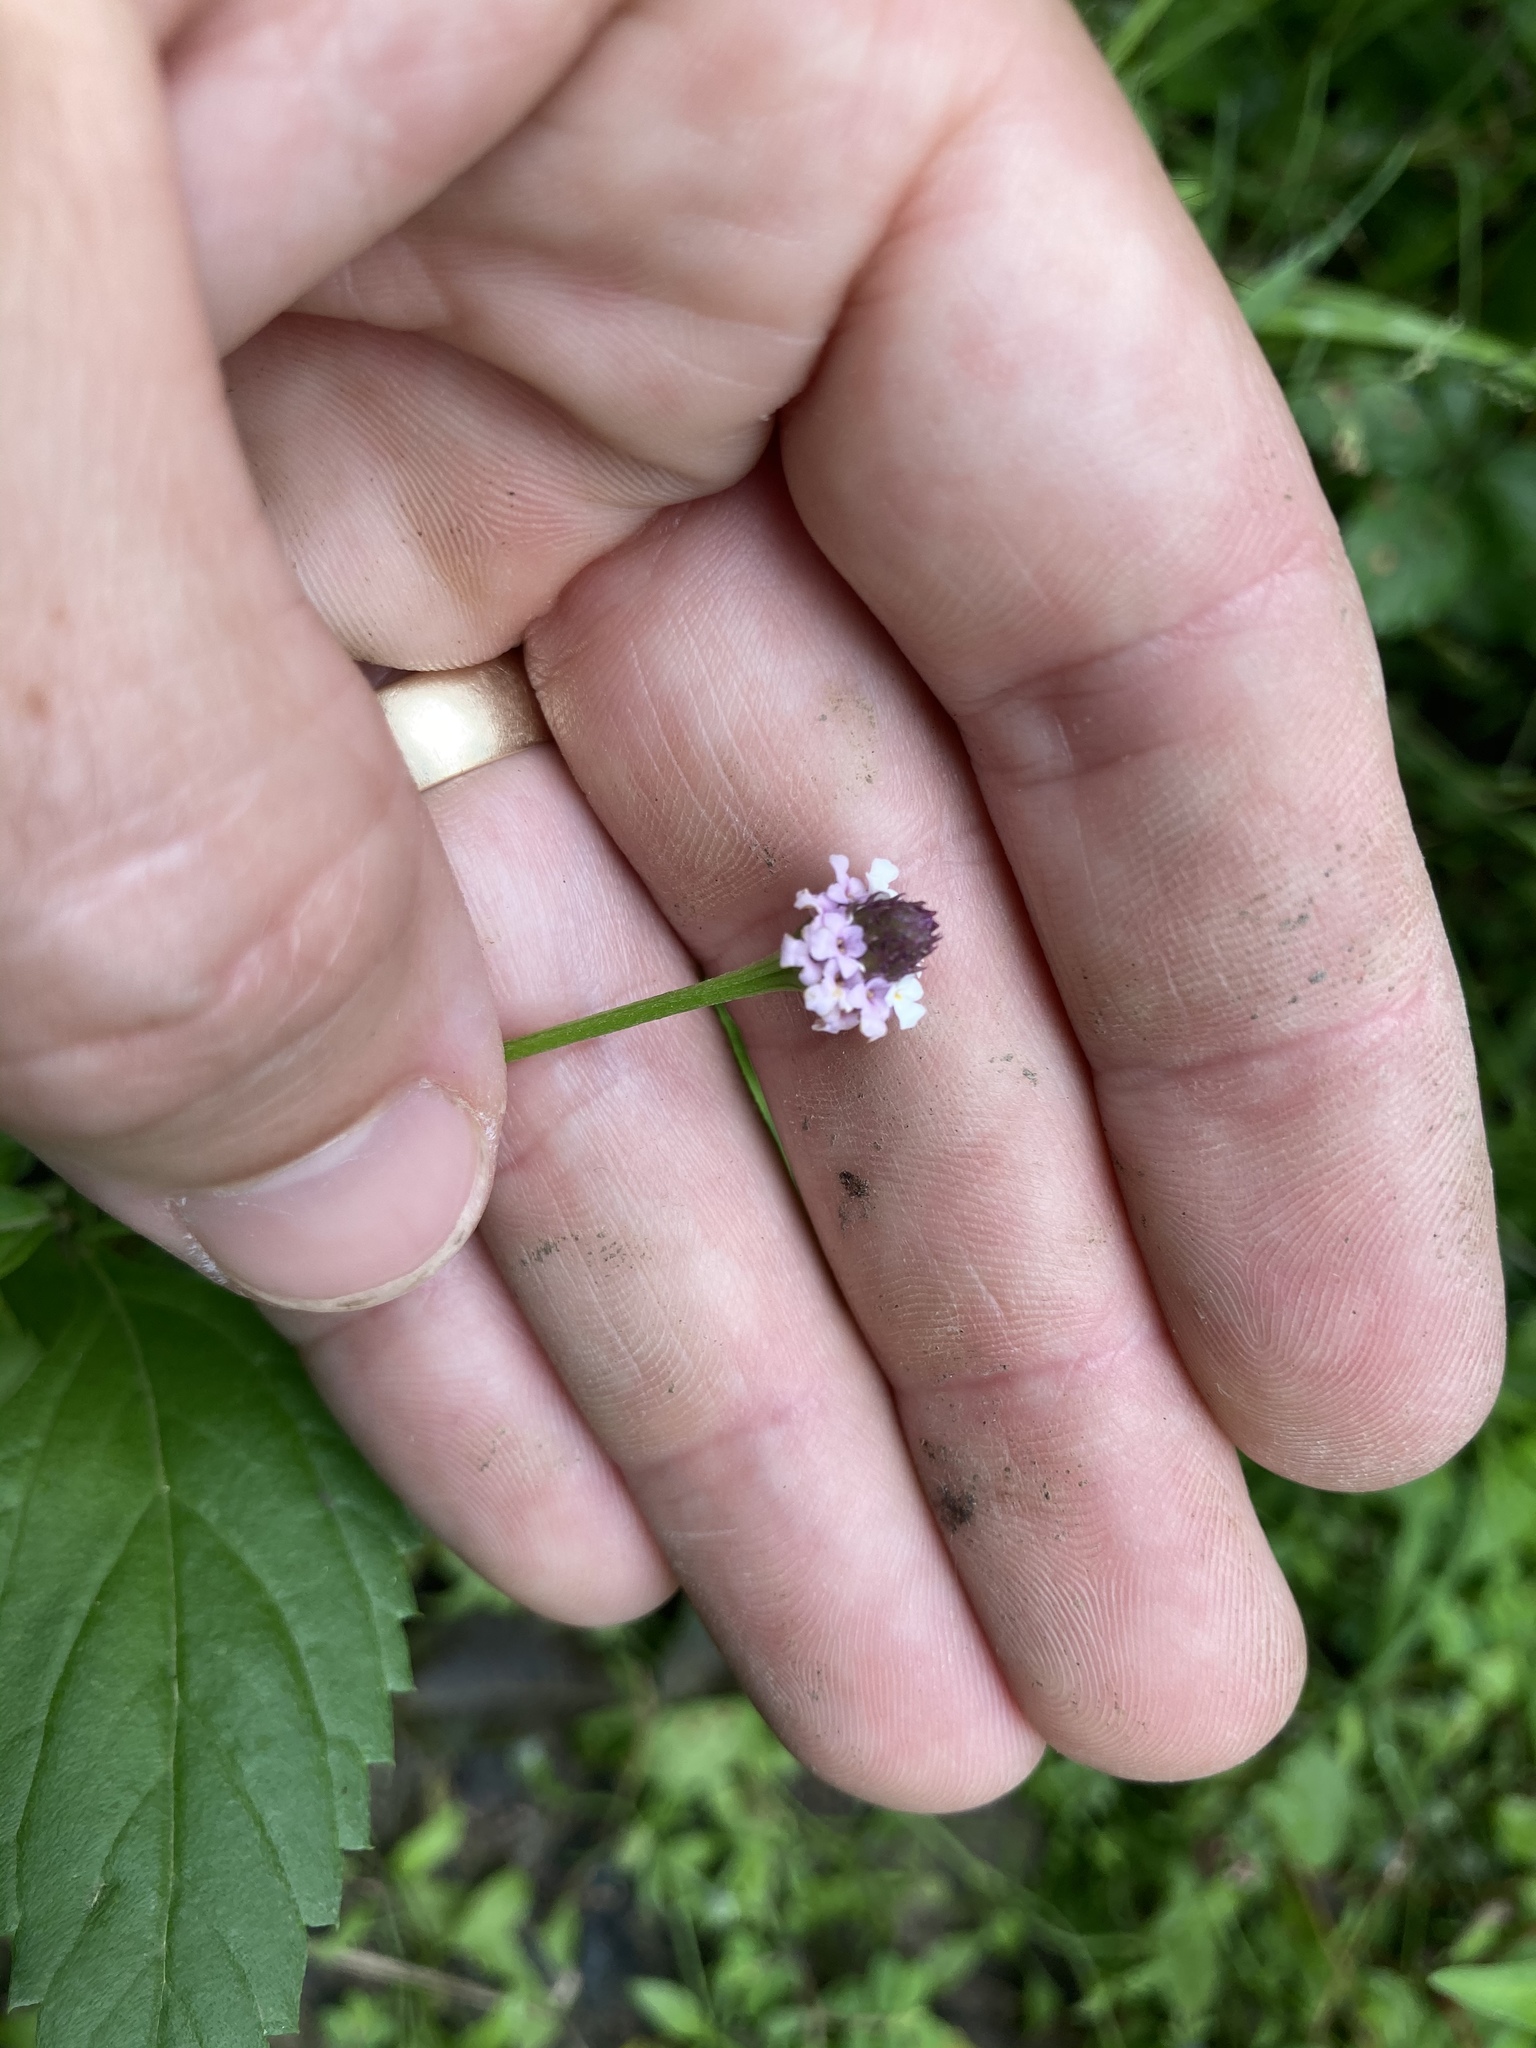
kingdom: Plantae
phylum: Tracheophyta
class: Magnoliopsida
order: Lamiales
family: Verbenaceae
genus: Phyla
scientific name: Phyla lanceolata
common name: Northern fogfruit
